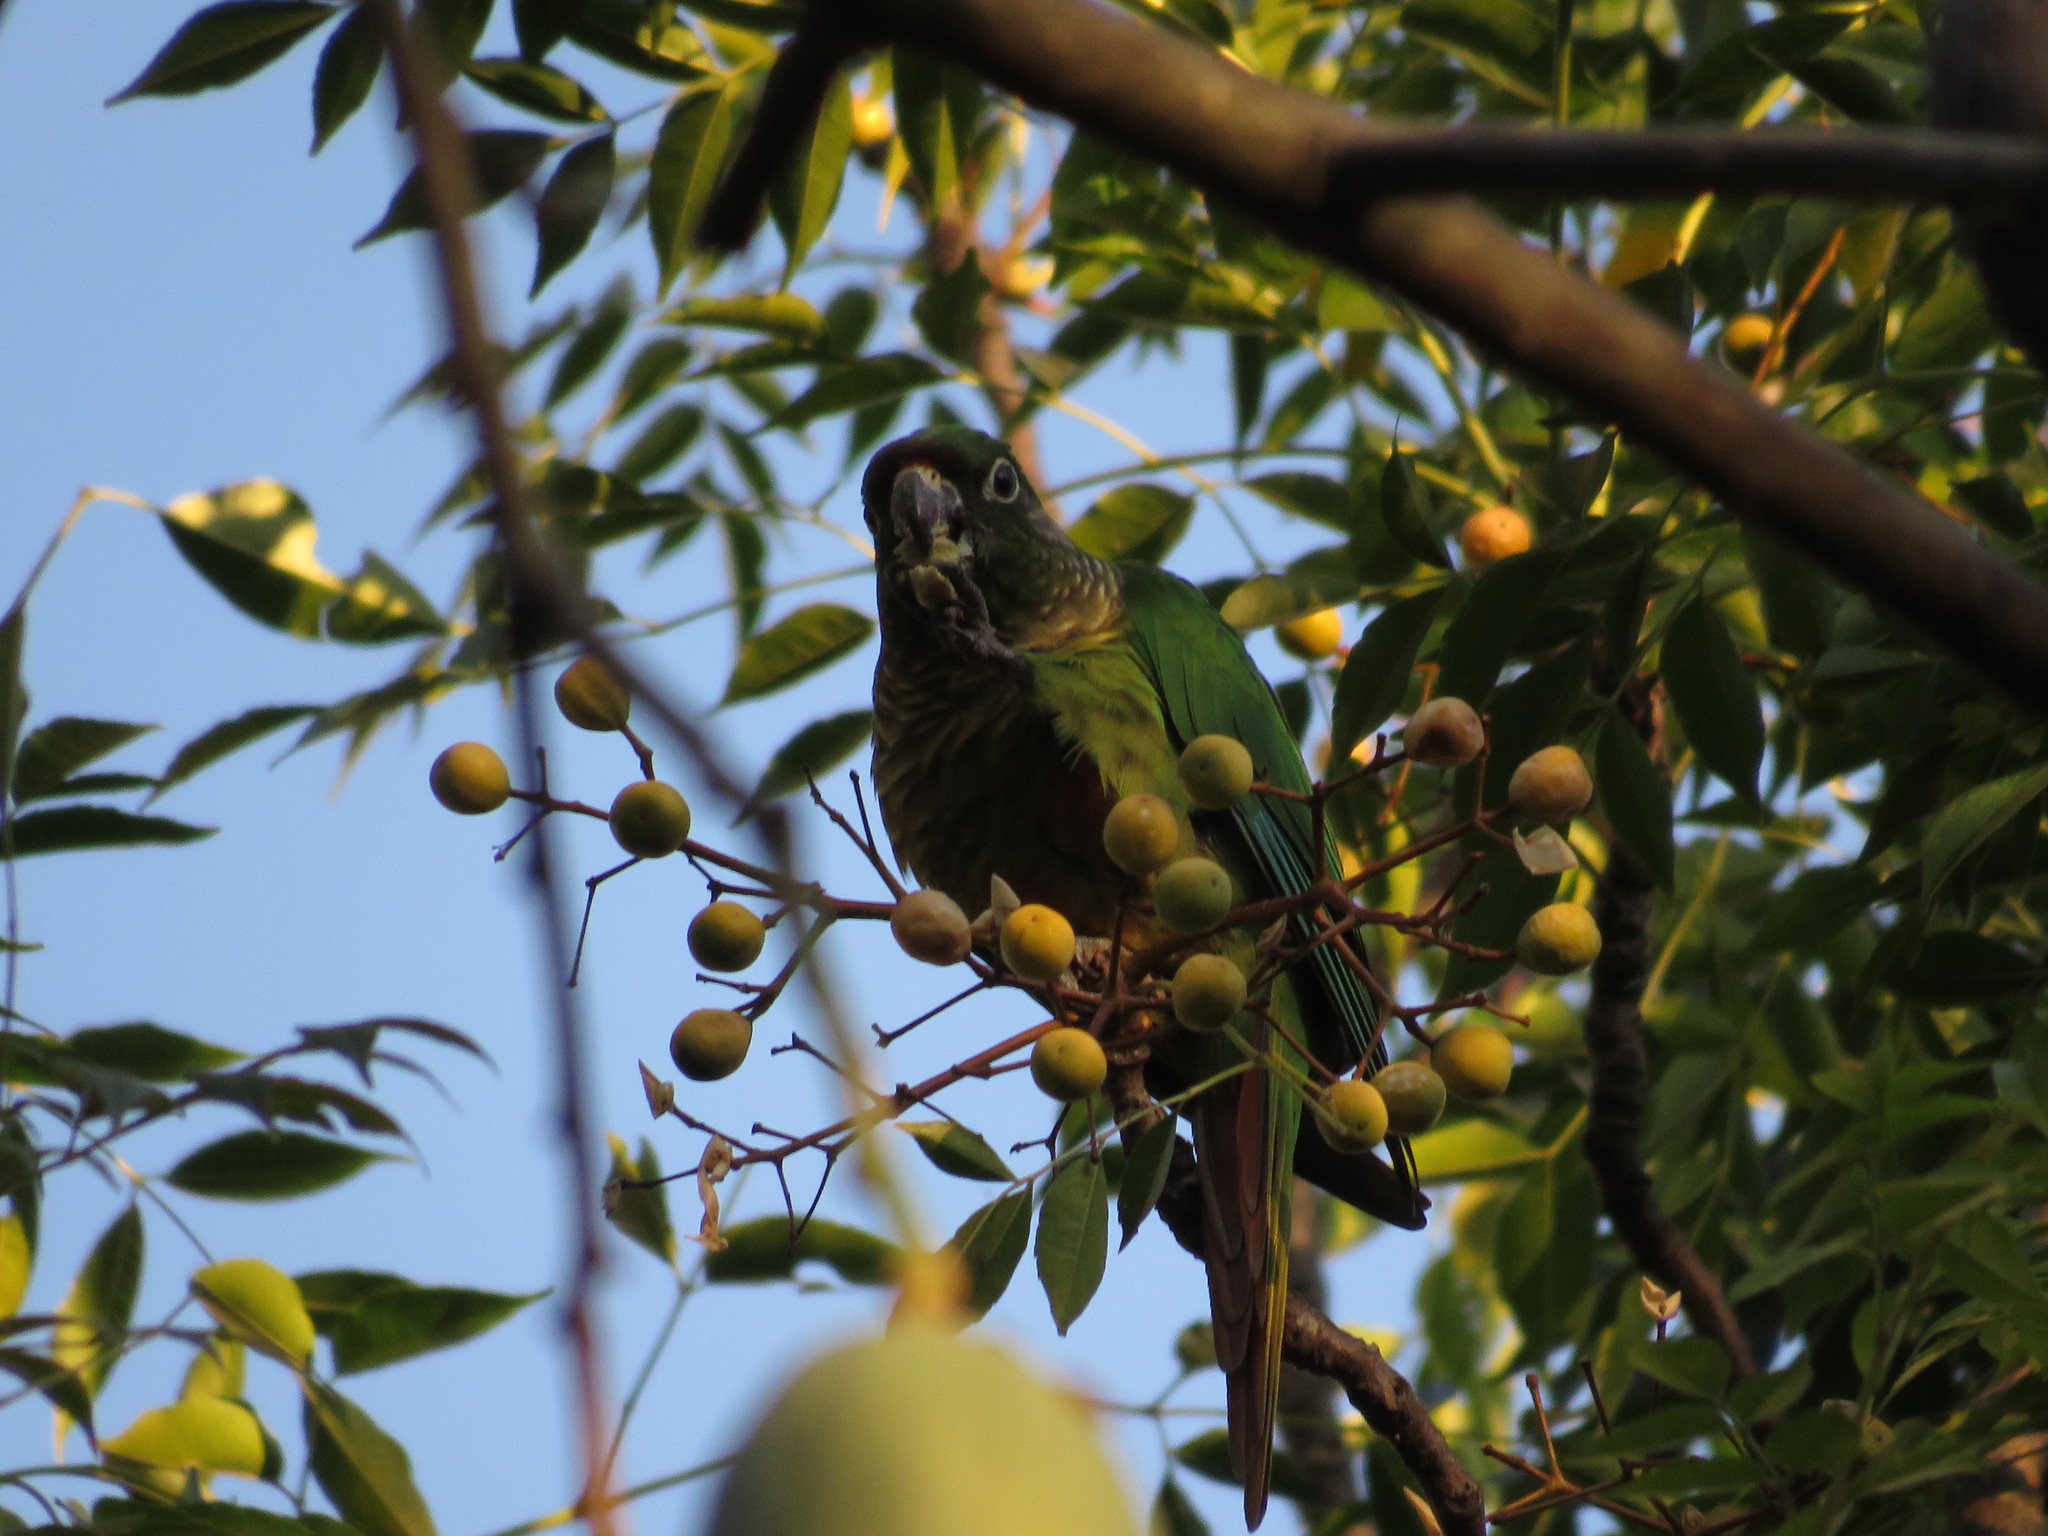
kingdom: Animalia
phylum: Chordata
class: Aves
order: Psittaciformes
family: Psittacidae
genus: Pyrrhura
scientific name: Pyrrhura frontalis
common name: Maroon-bellied parakeet
